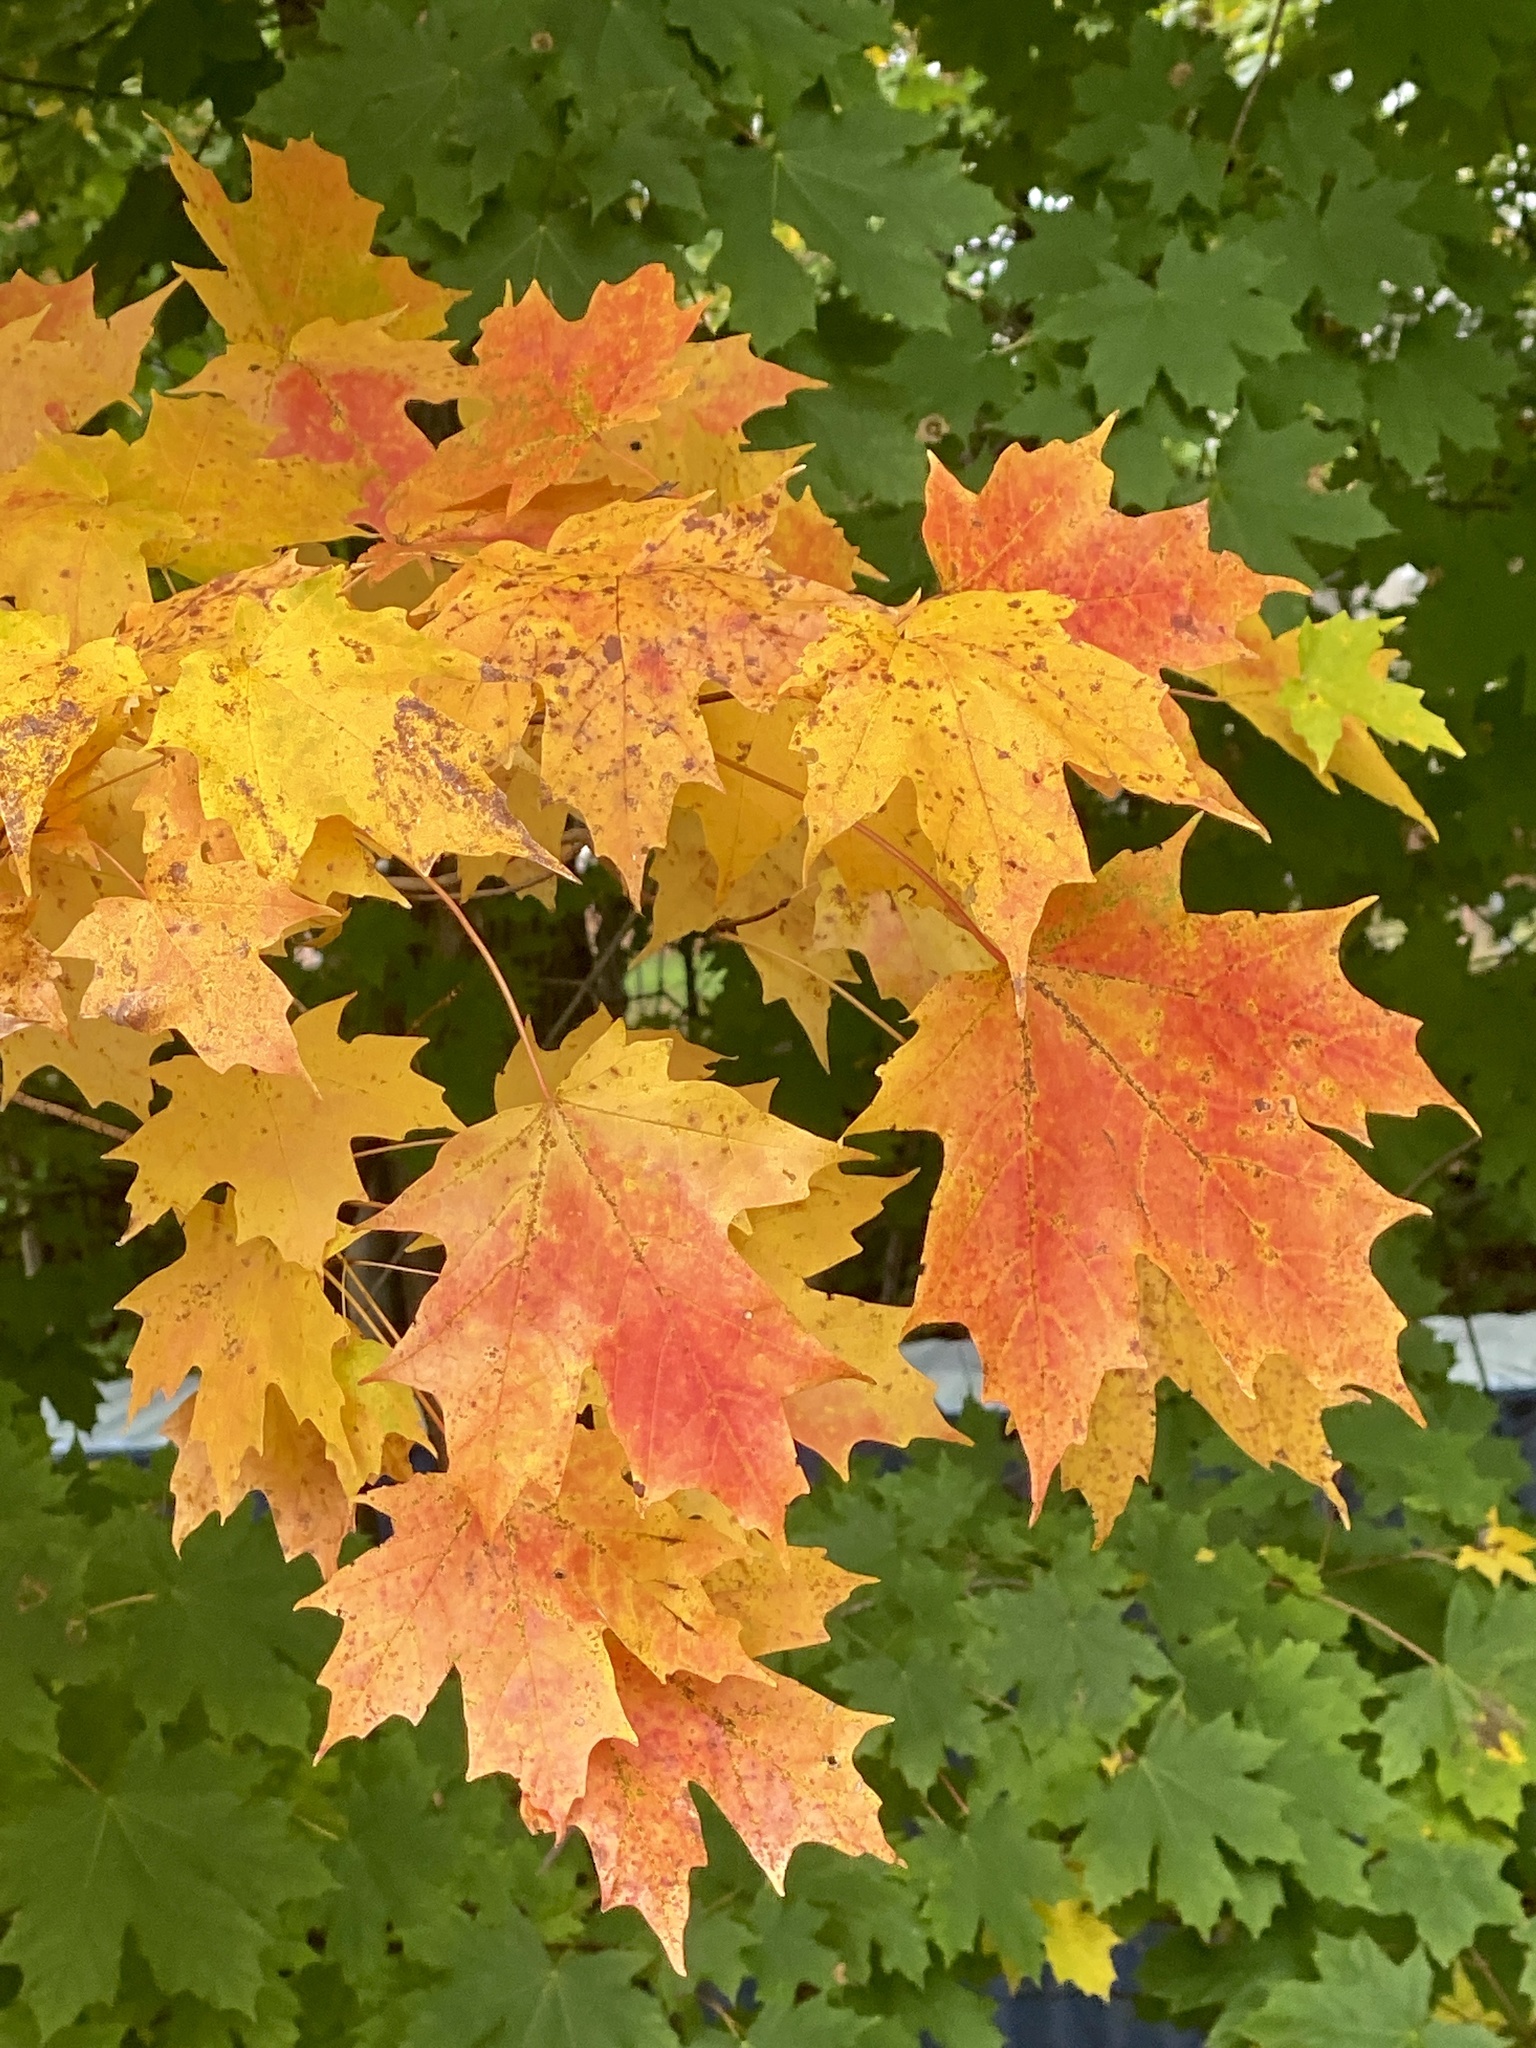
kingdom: Plantae
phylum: Tracheophyta
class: Magnoliopsida
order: Sapindales
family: Sapindaceae
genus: Acer
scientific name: Acer saccharum
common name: Sugar maple
